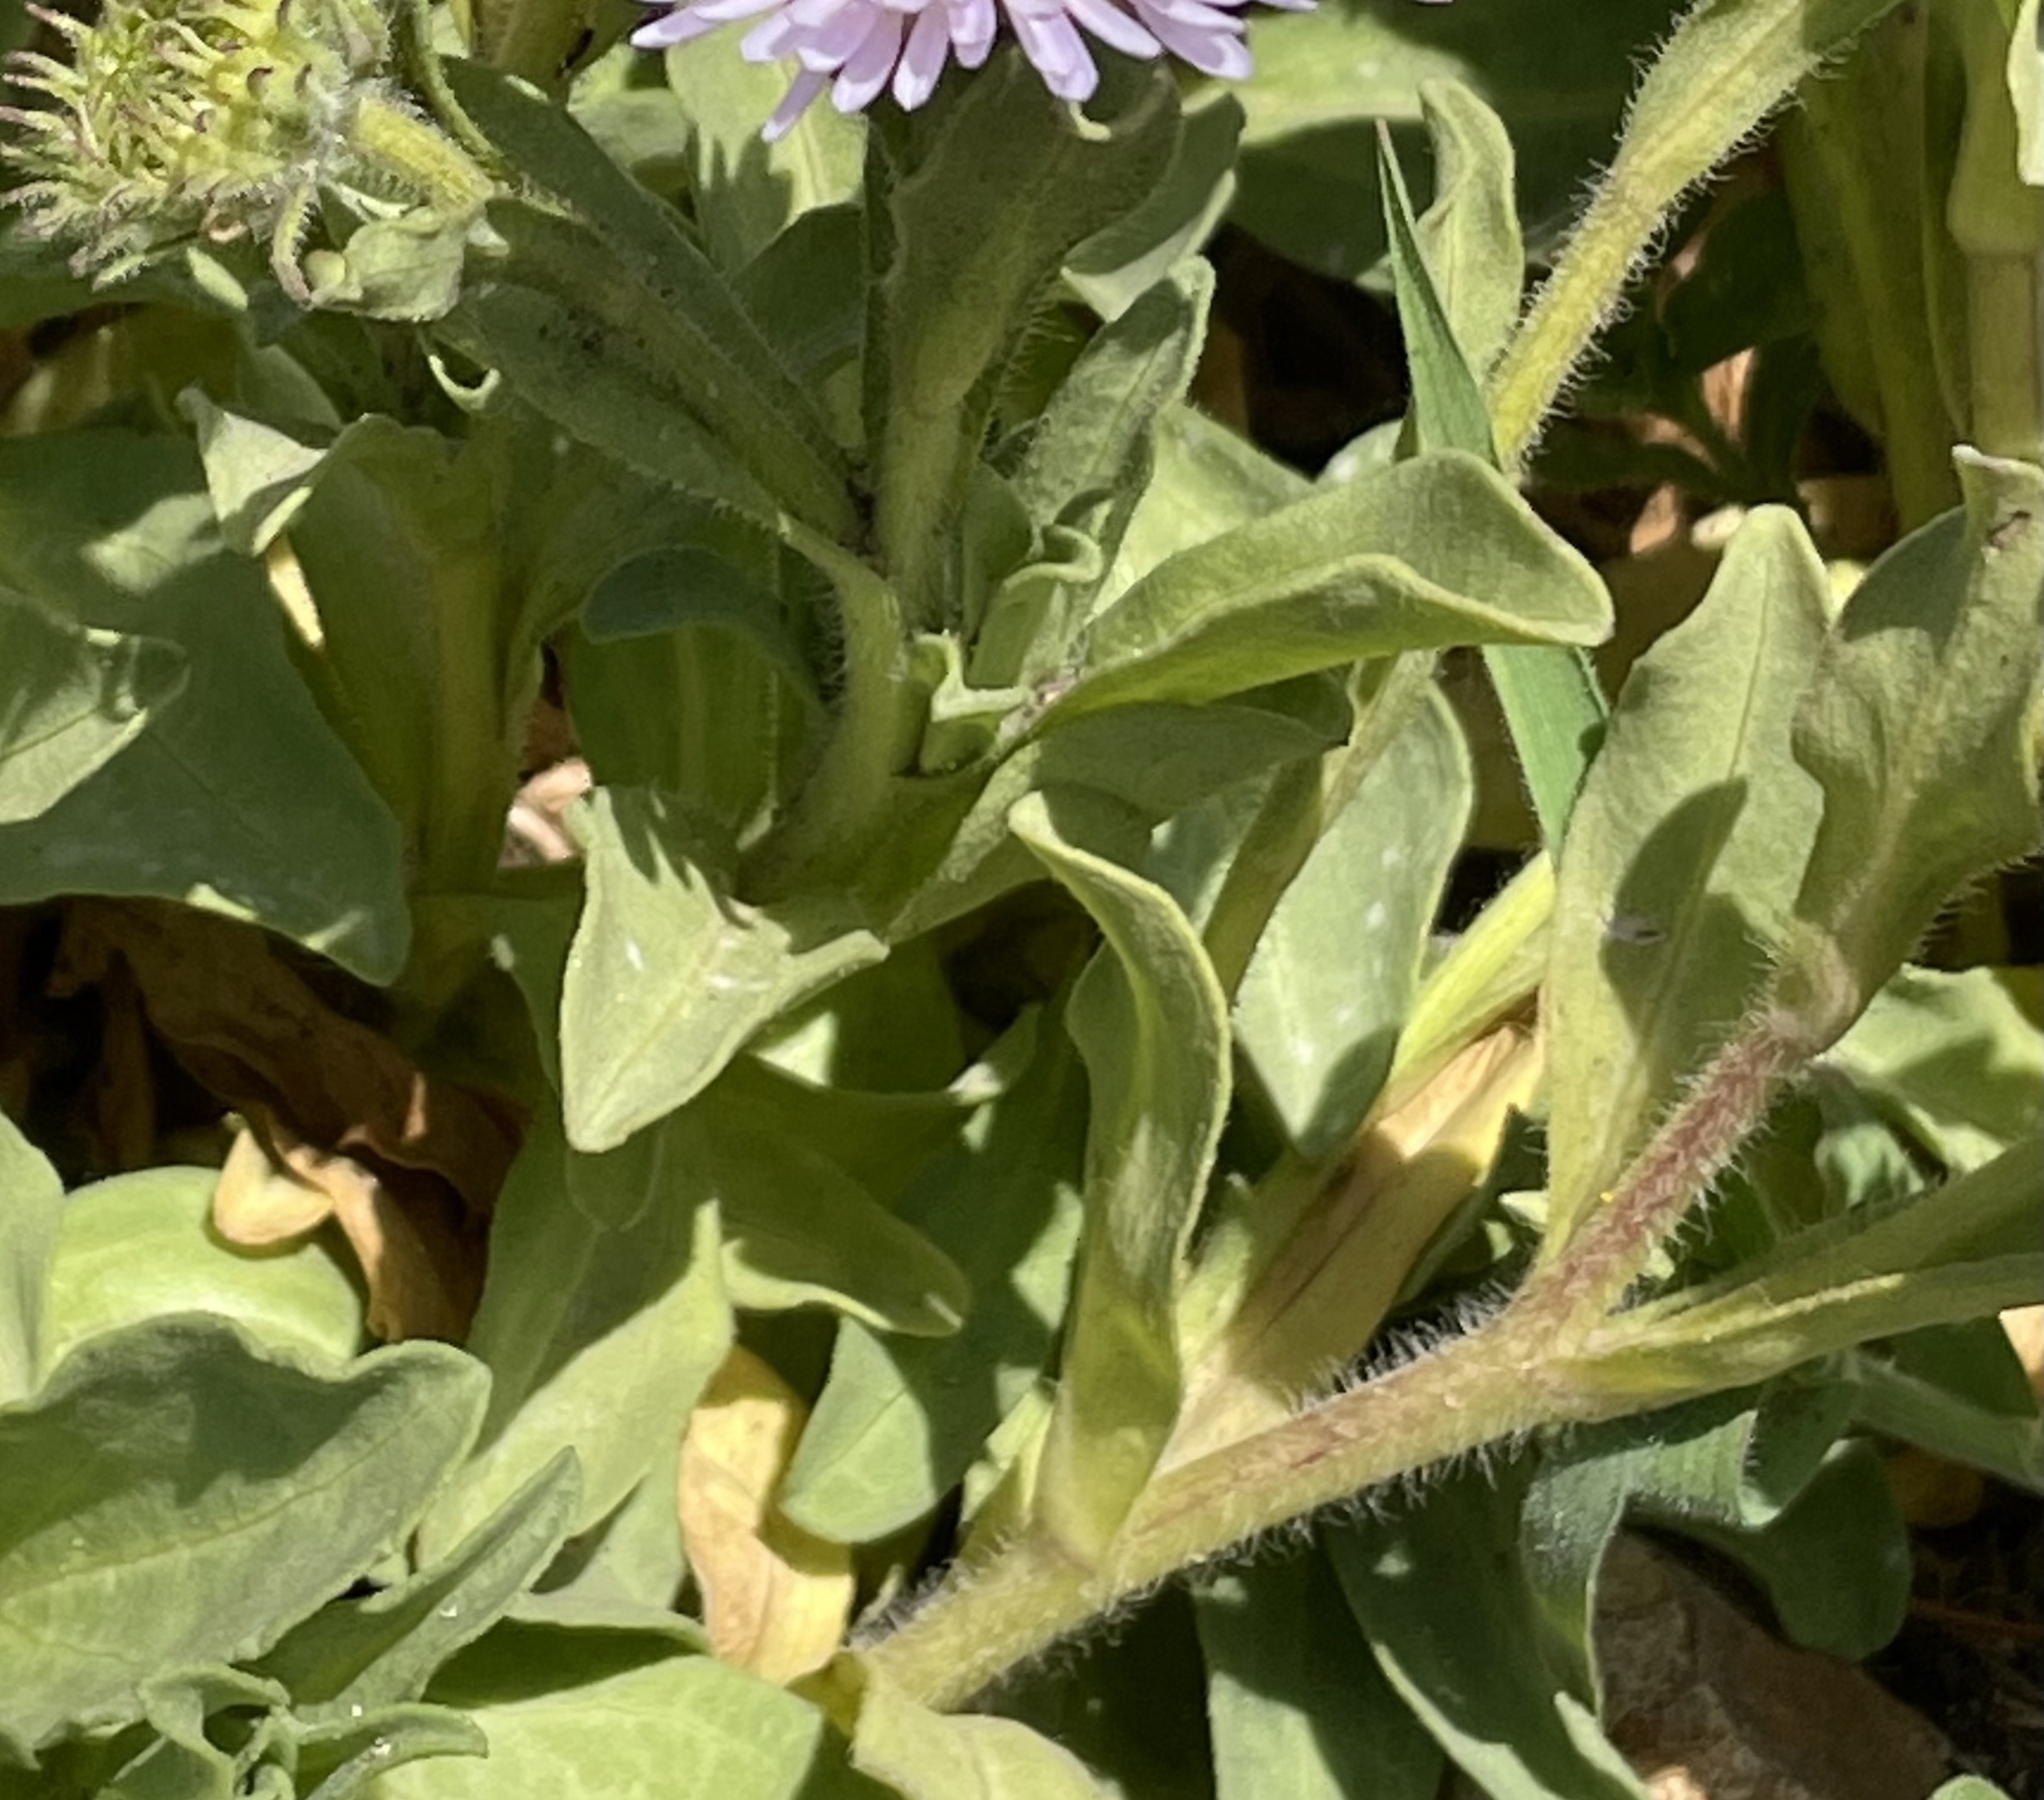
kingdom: Plantae
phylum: Tracheophyta
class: Magnoliopsida
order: Asterales
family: Asteraceae
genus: Erigeron
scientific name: Erigeron glaucus
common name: Seaside daisy
